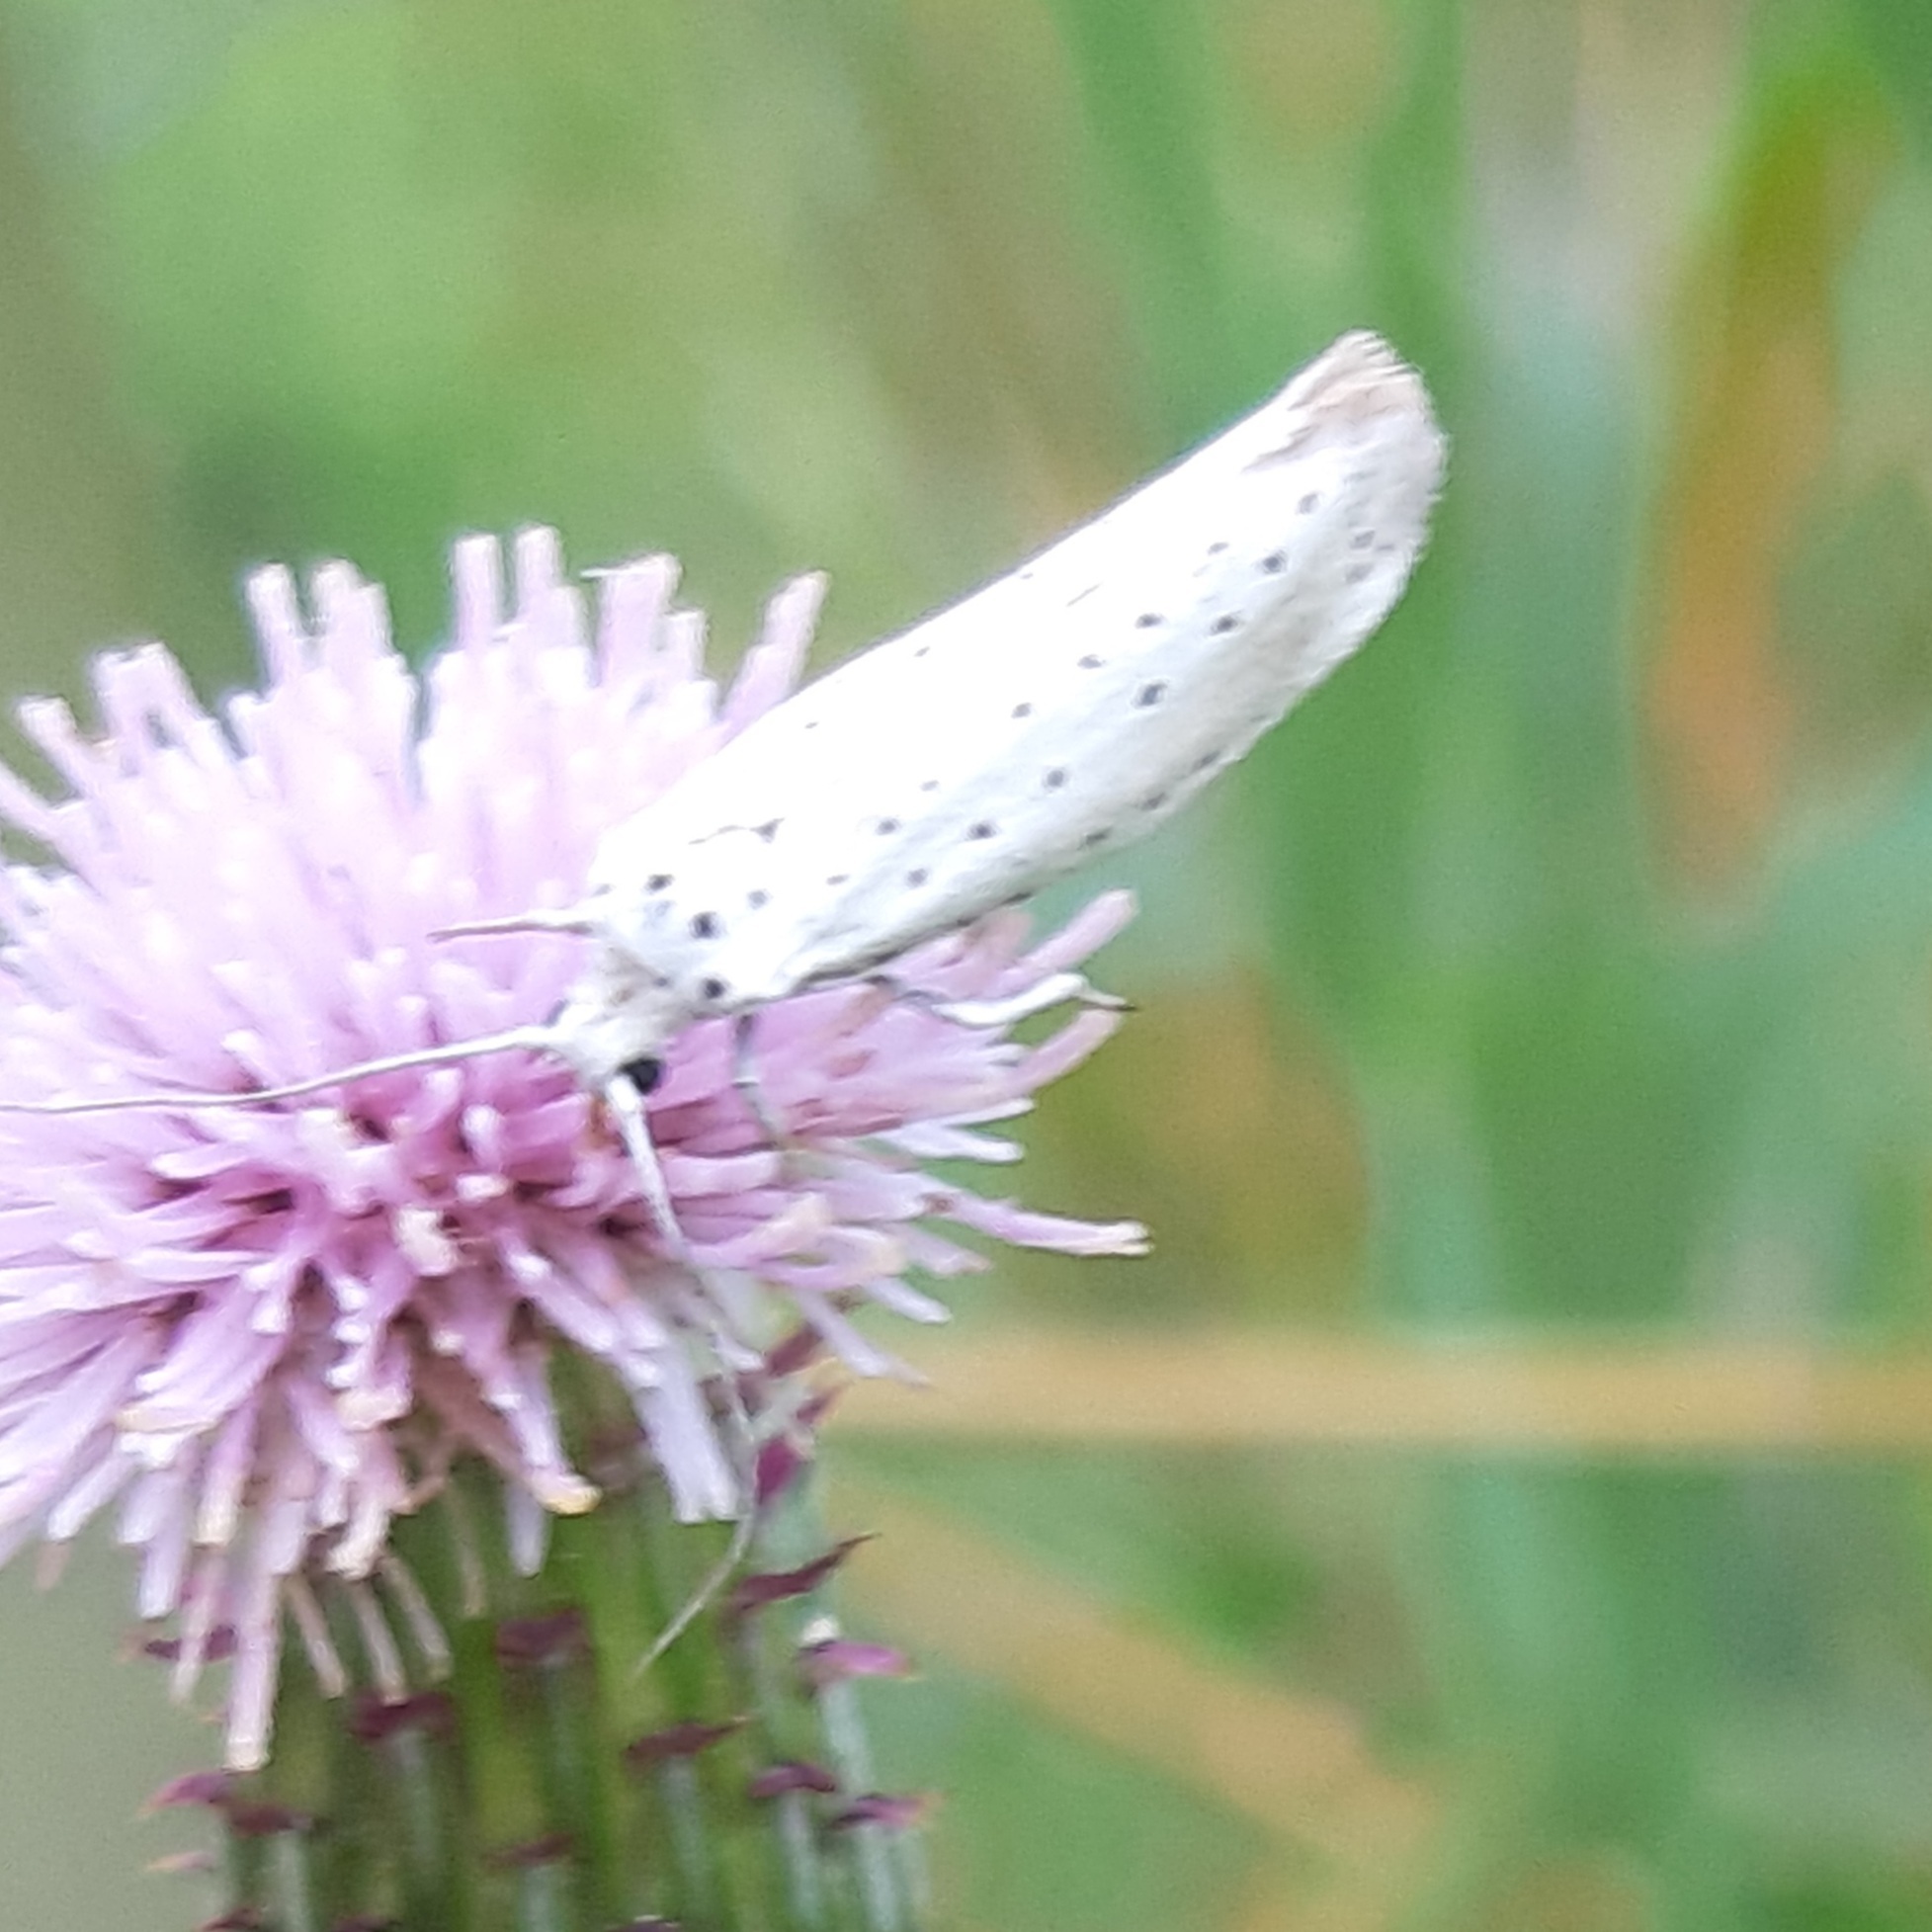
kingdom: Animalia
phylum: Arthropoda
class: Insecta
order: Lepidoptera
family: Yponomeutidae
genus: Yponomeuta
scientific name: Yponomeuta evonymella
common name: Bird-cherry ermine
